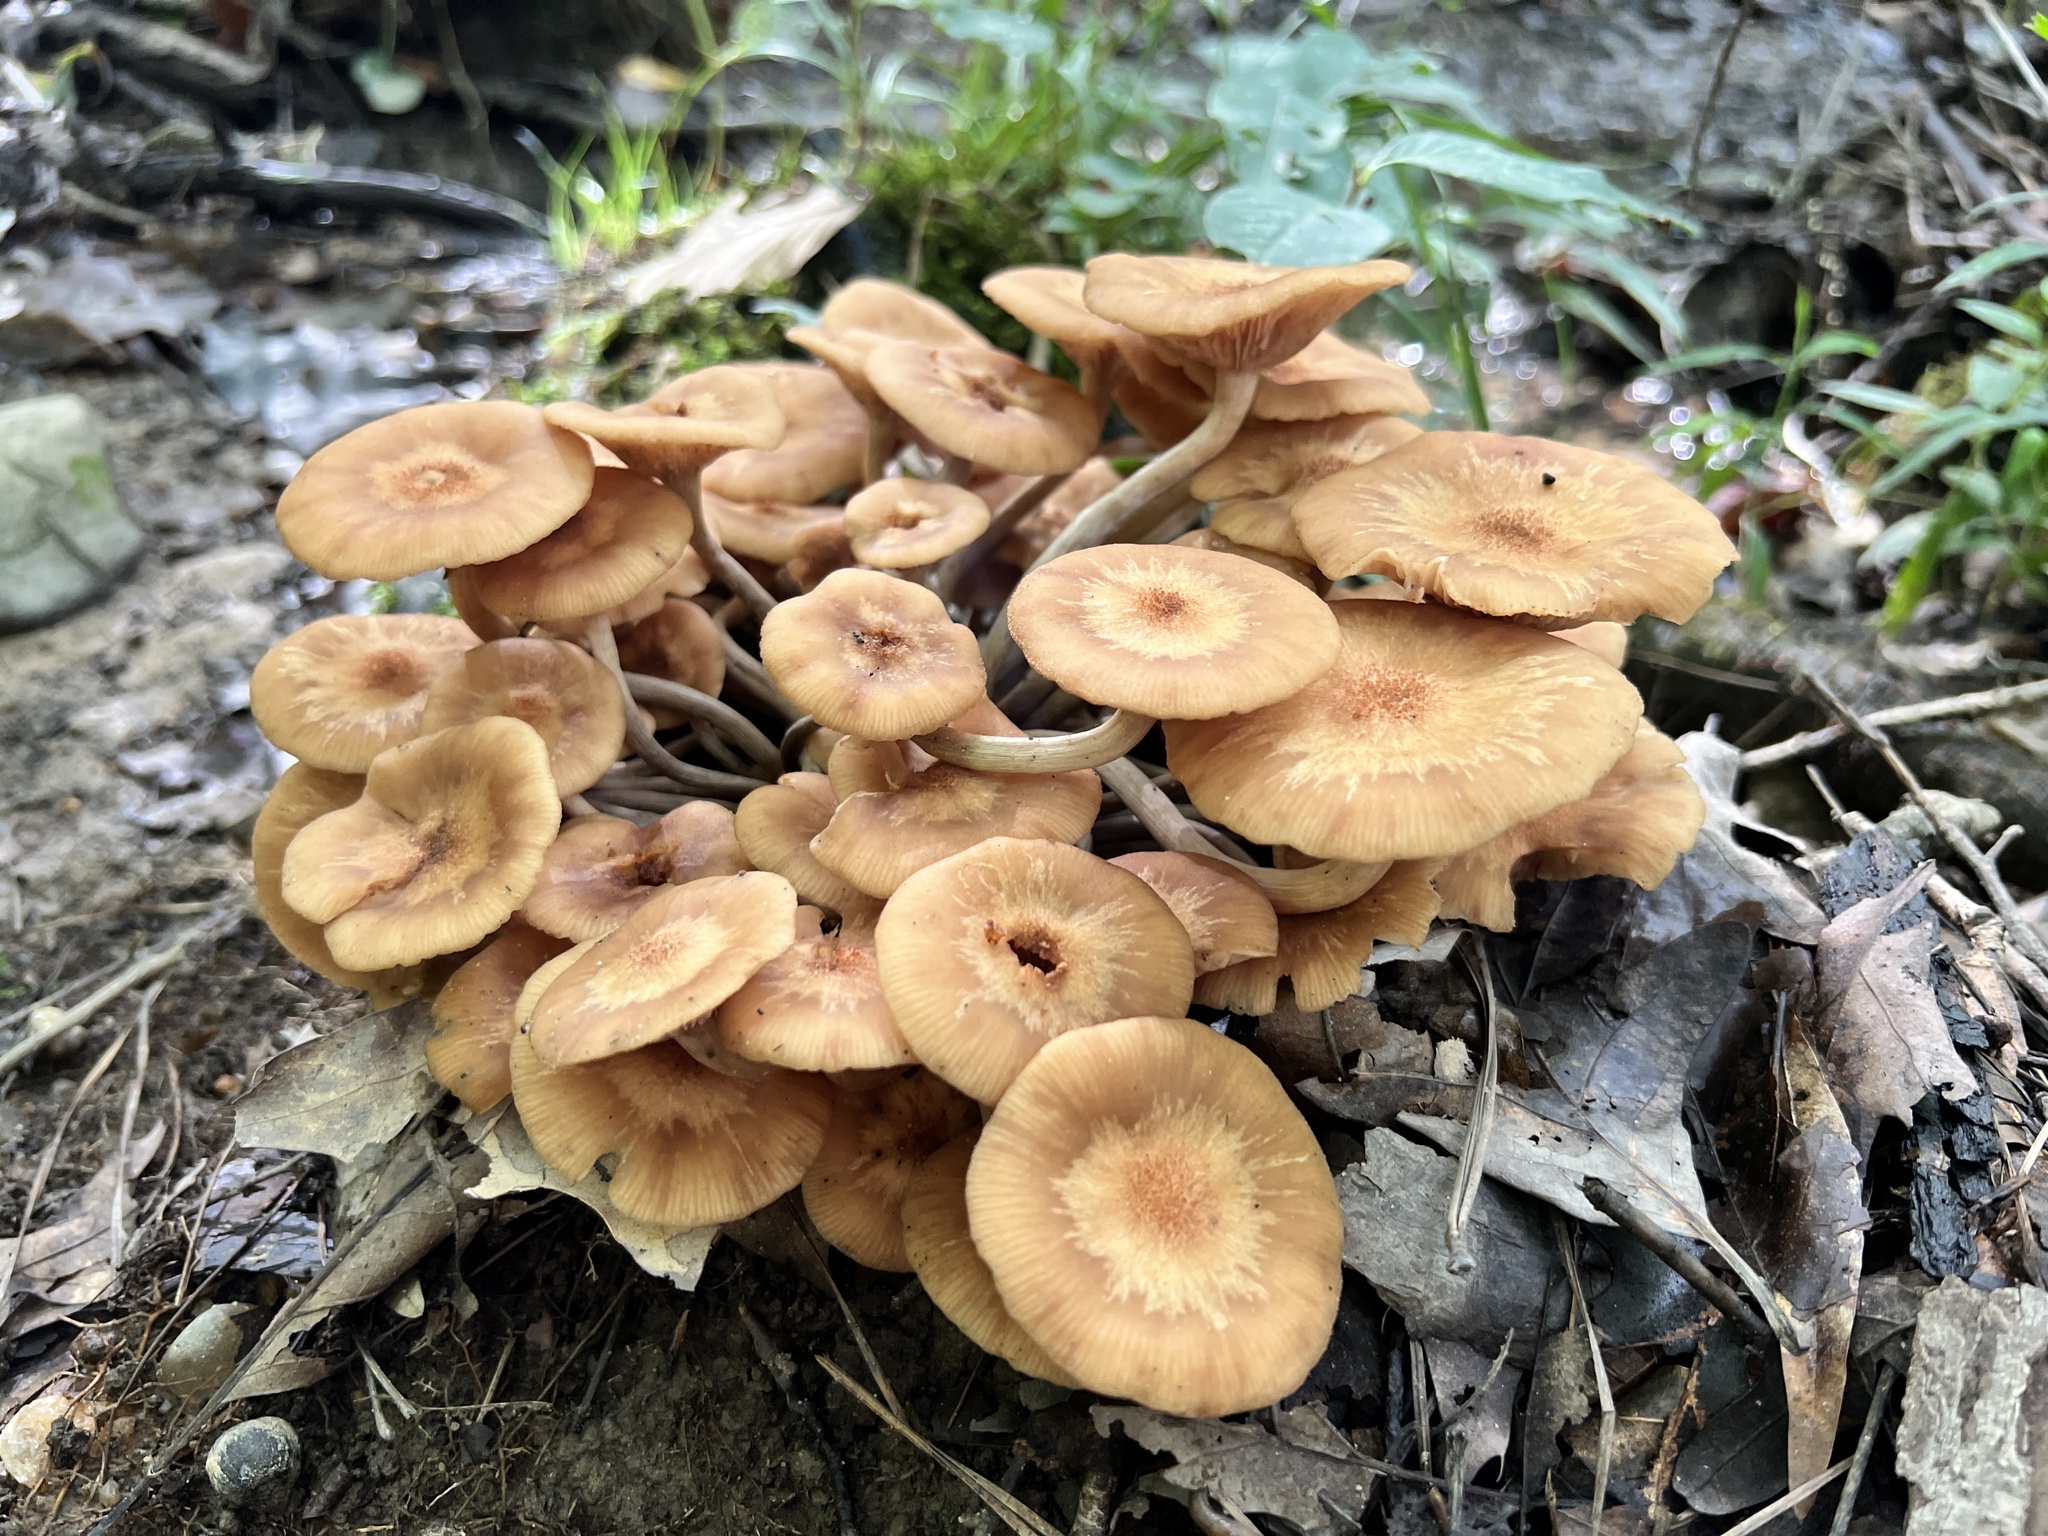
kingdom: Fungi
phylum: Basidiomycota
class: Agaricomycetes
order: Agaricales
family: Physalacriaceae
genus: Desarmillaria
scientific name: Desarmillaria caespitosa
